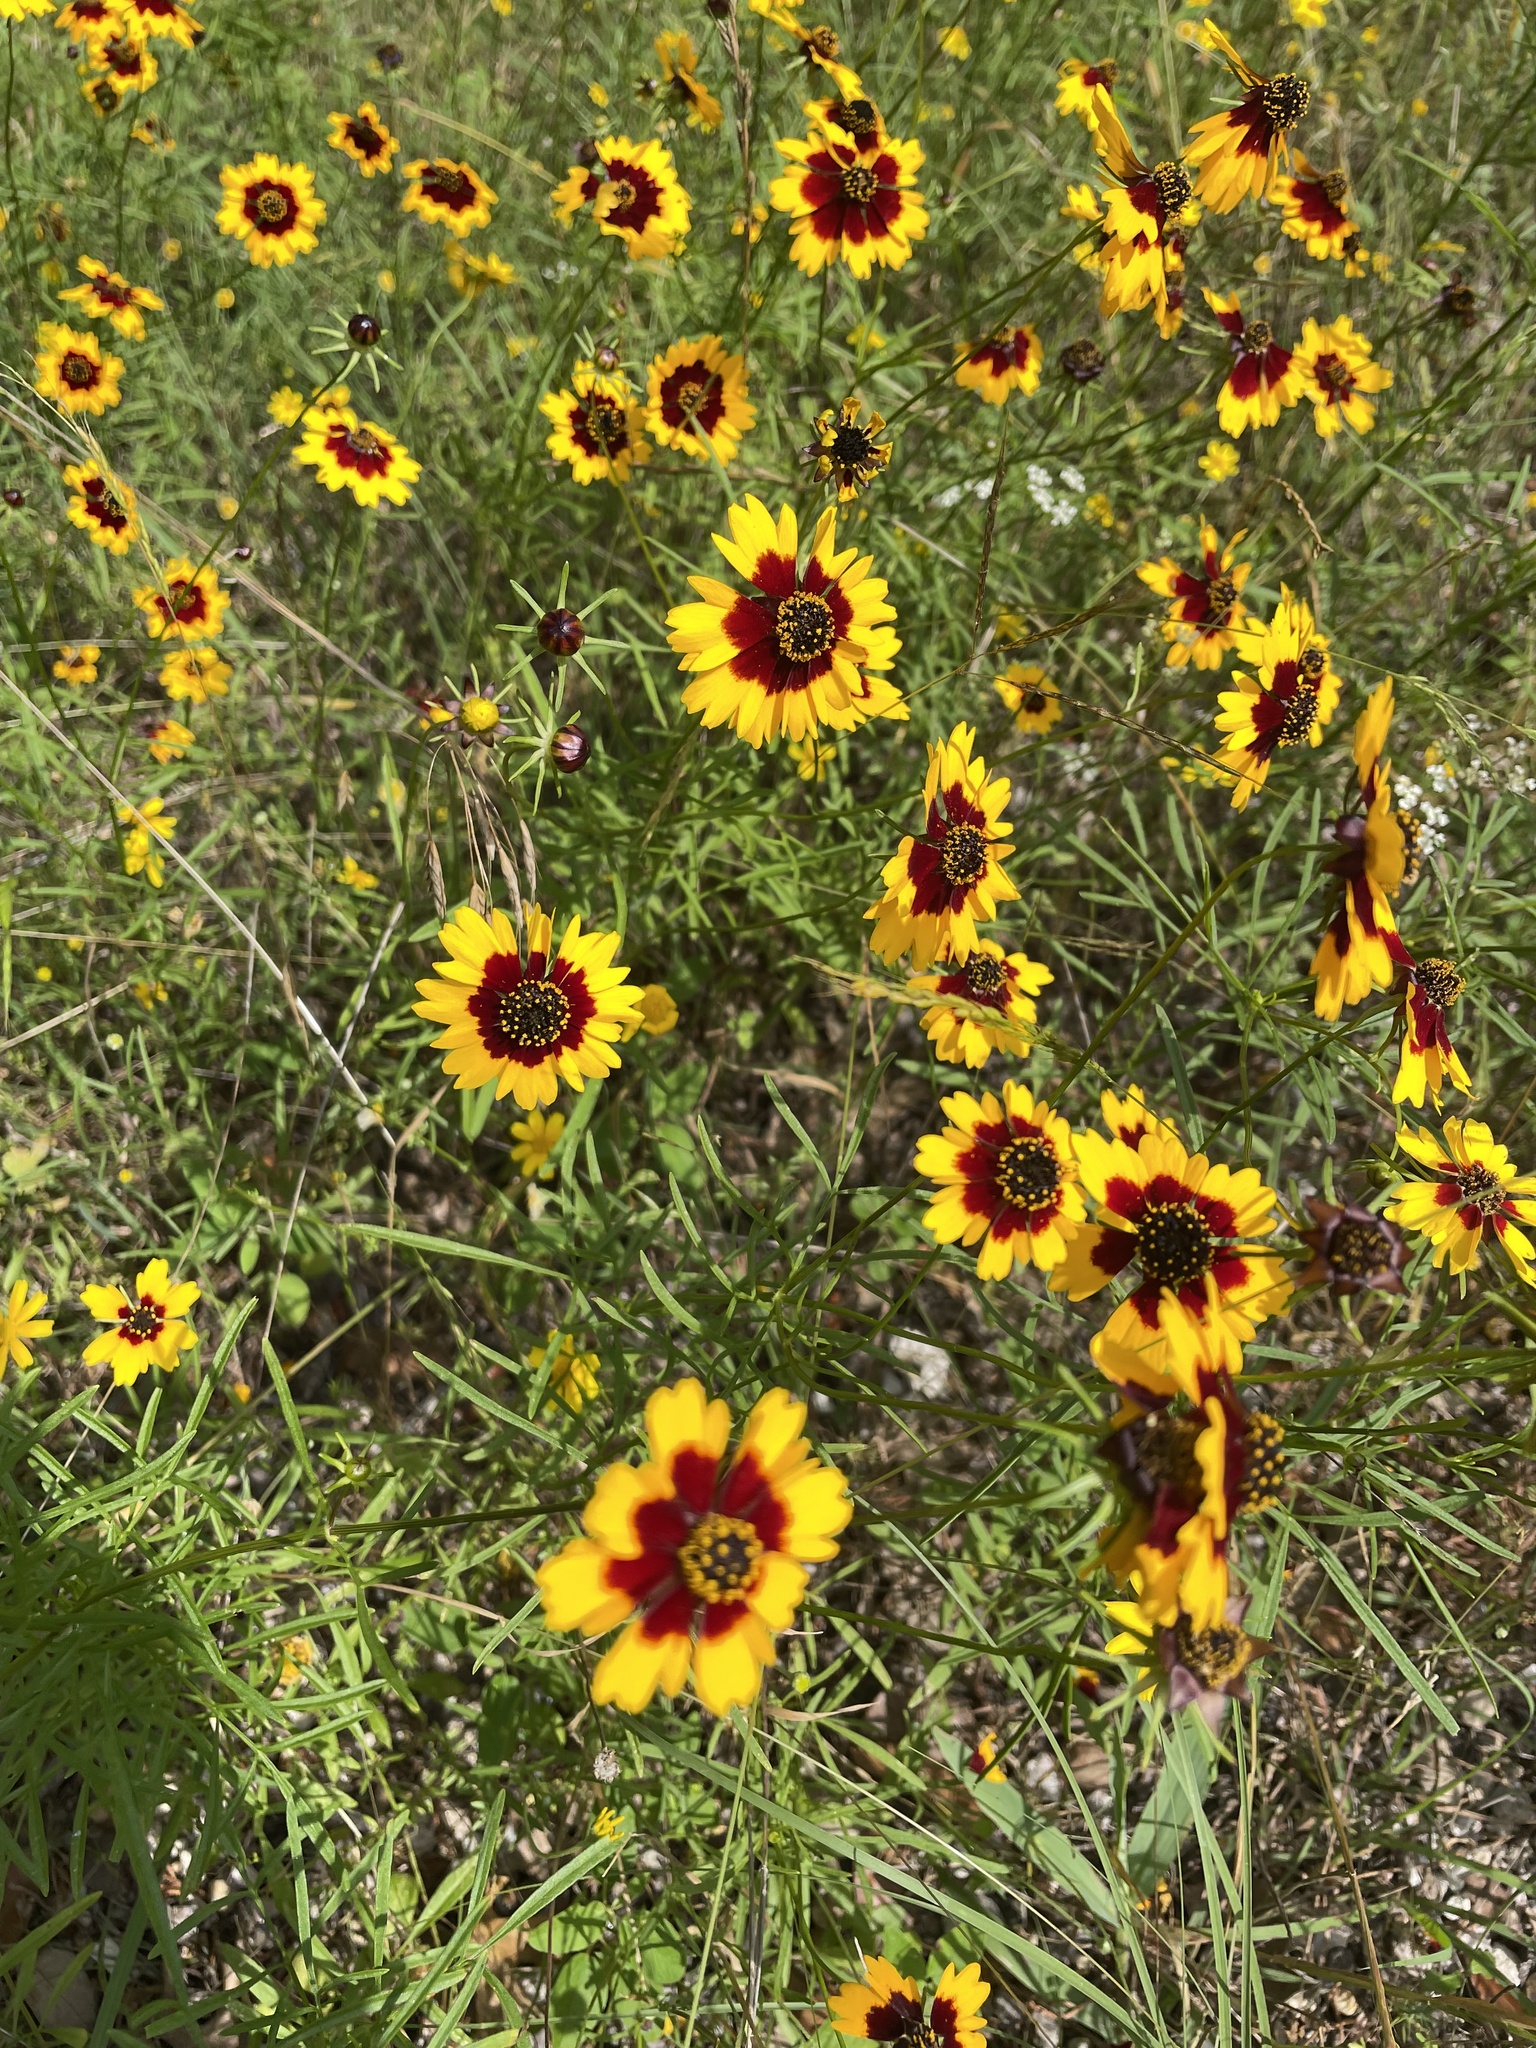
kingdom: Plantae
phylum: Tracheophyta
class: Magnoliopsida
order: Asterales
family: Asteraceae
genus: Coreopsis
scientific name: Coreopsis basalis
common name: Golden-mane coreopsis
